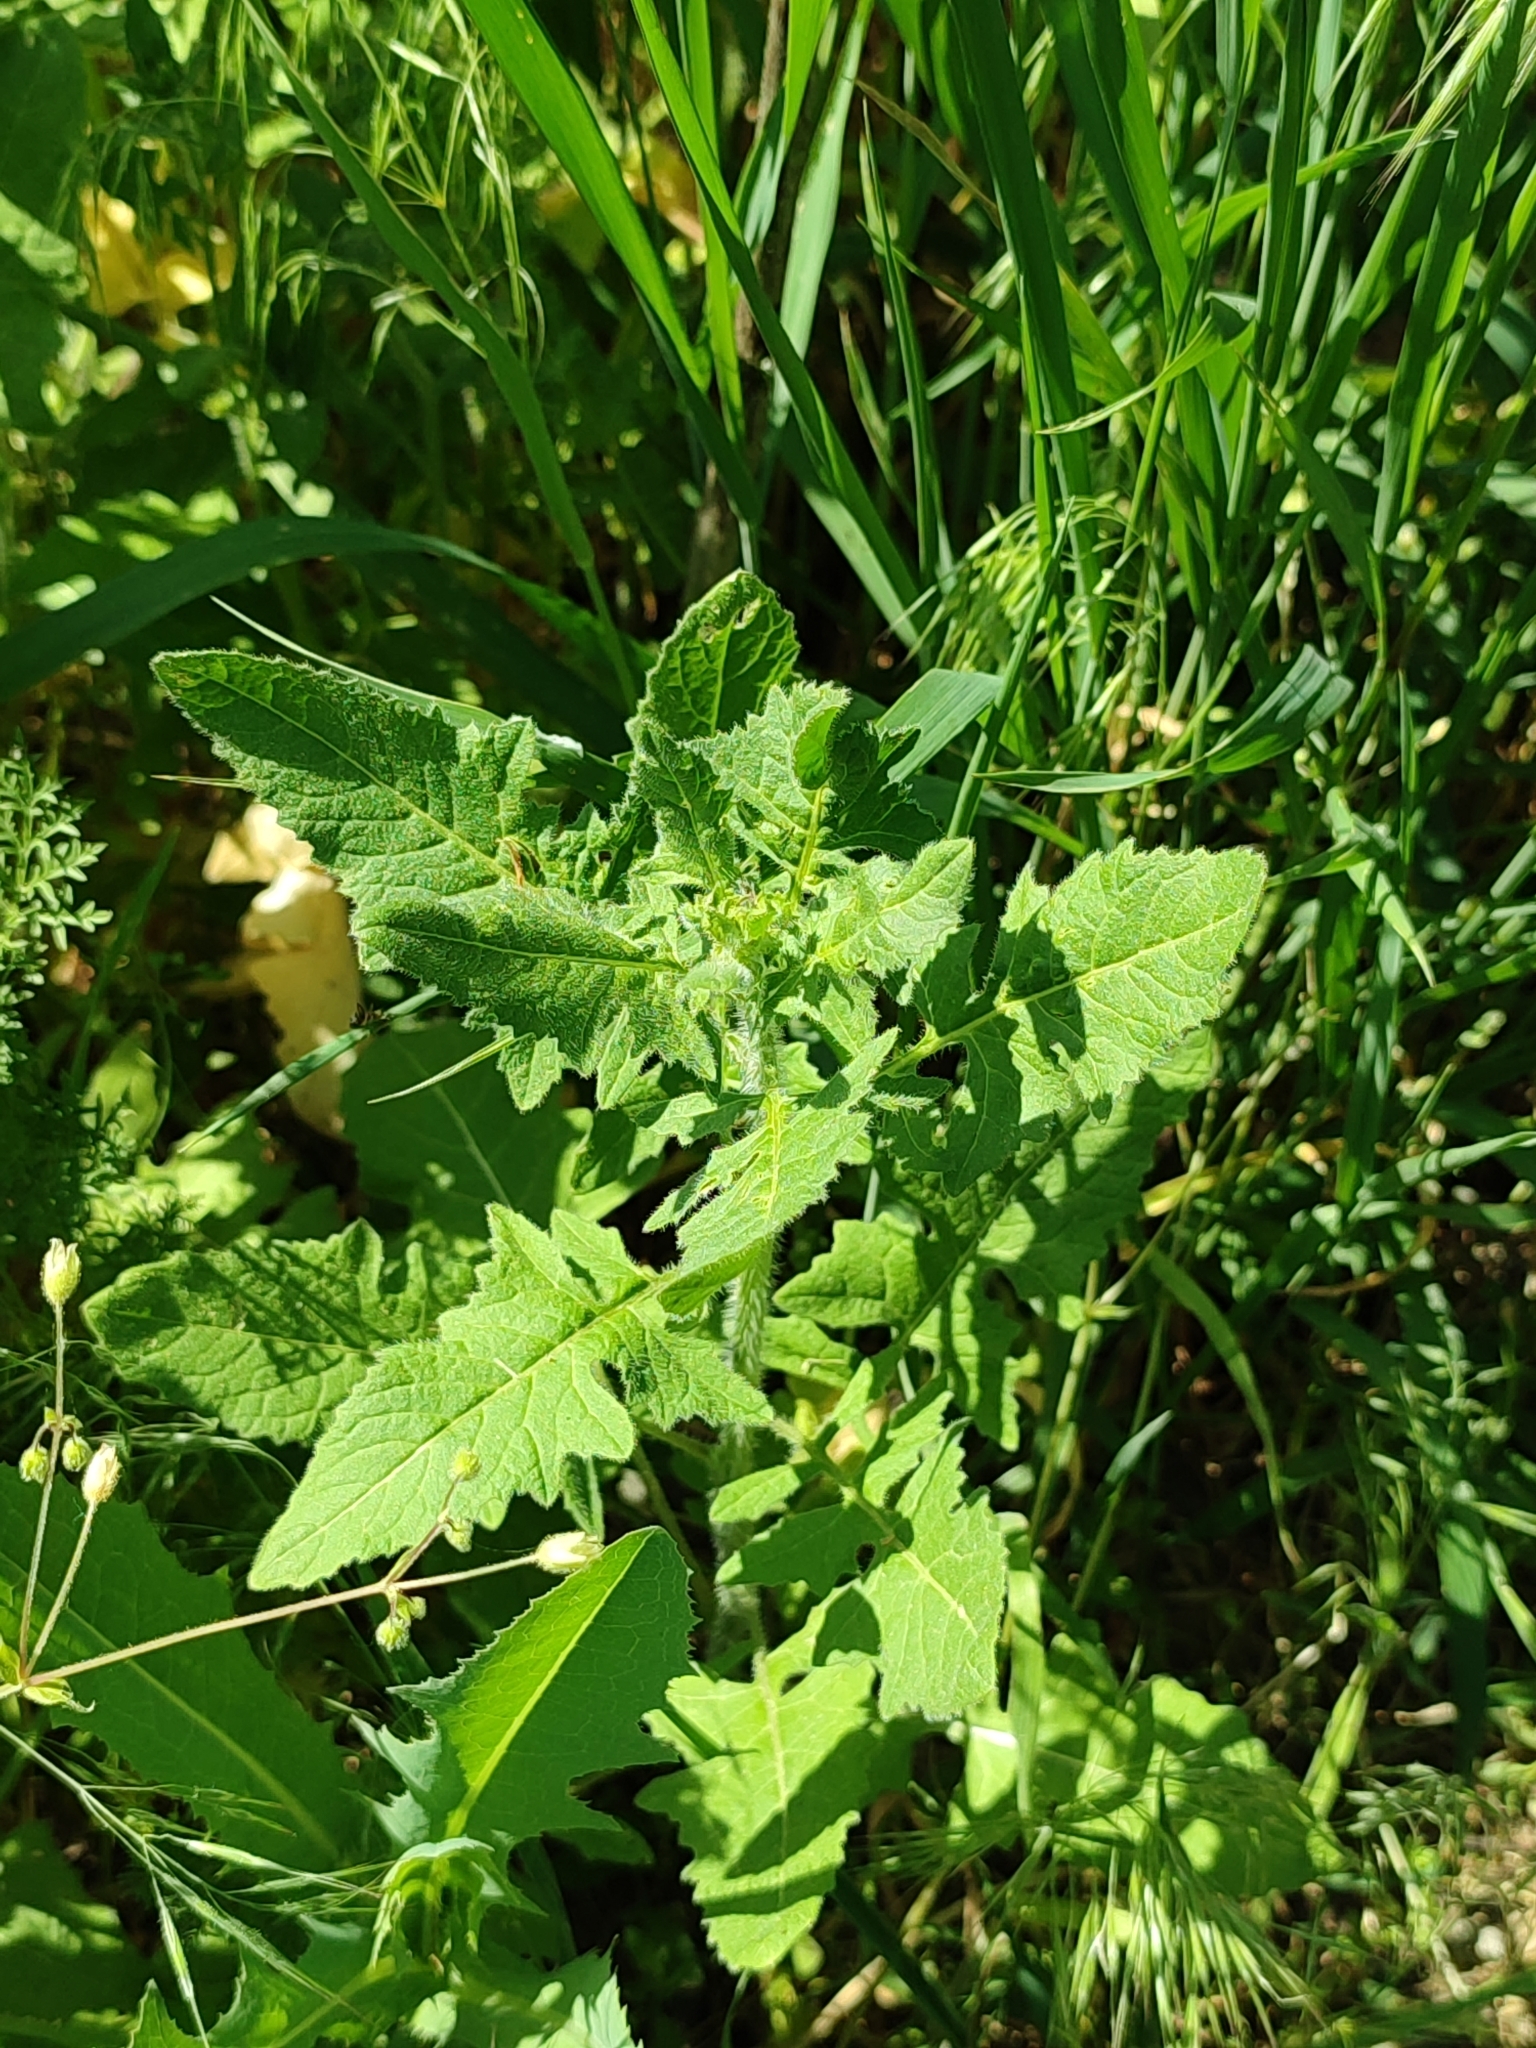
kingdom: Plantae
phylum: Tracheophyta
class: Magnoliopsida
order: Brassicales
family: Brassicaceae
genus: Sisymbrium
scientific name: Sisymbrium loeselii
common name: False london-rocket
